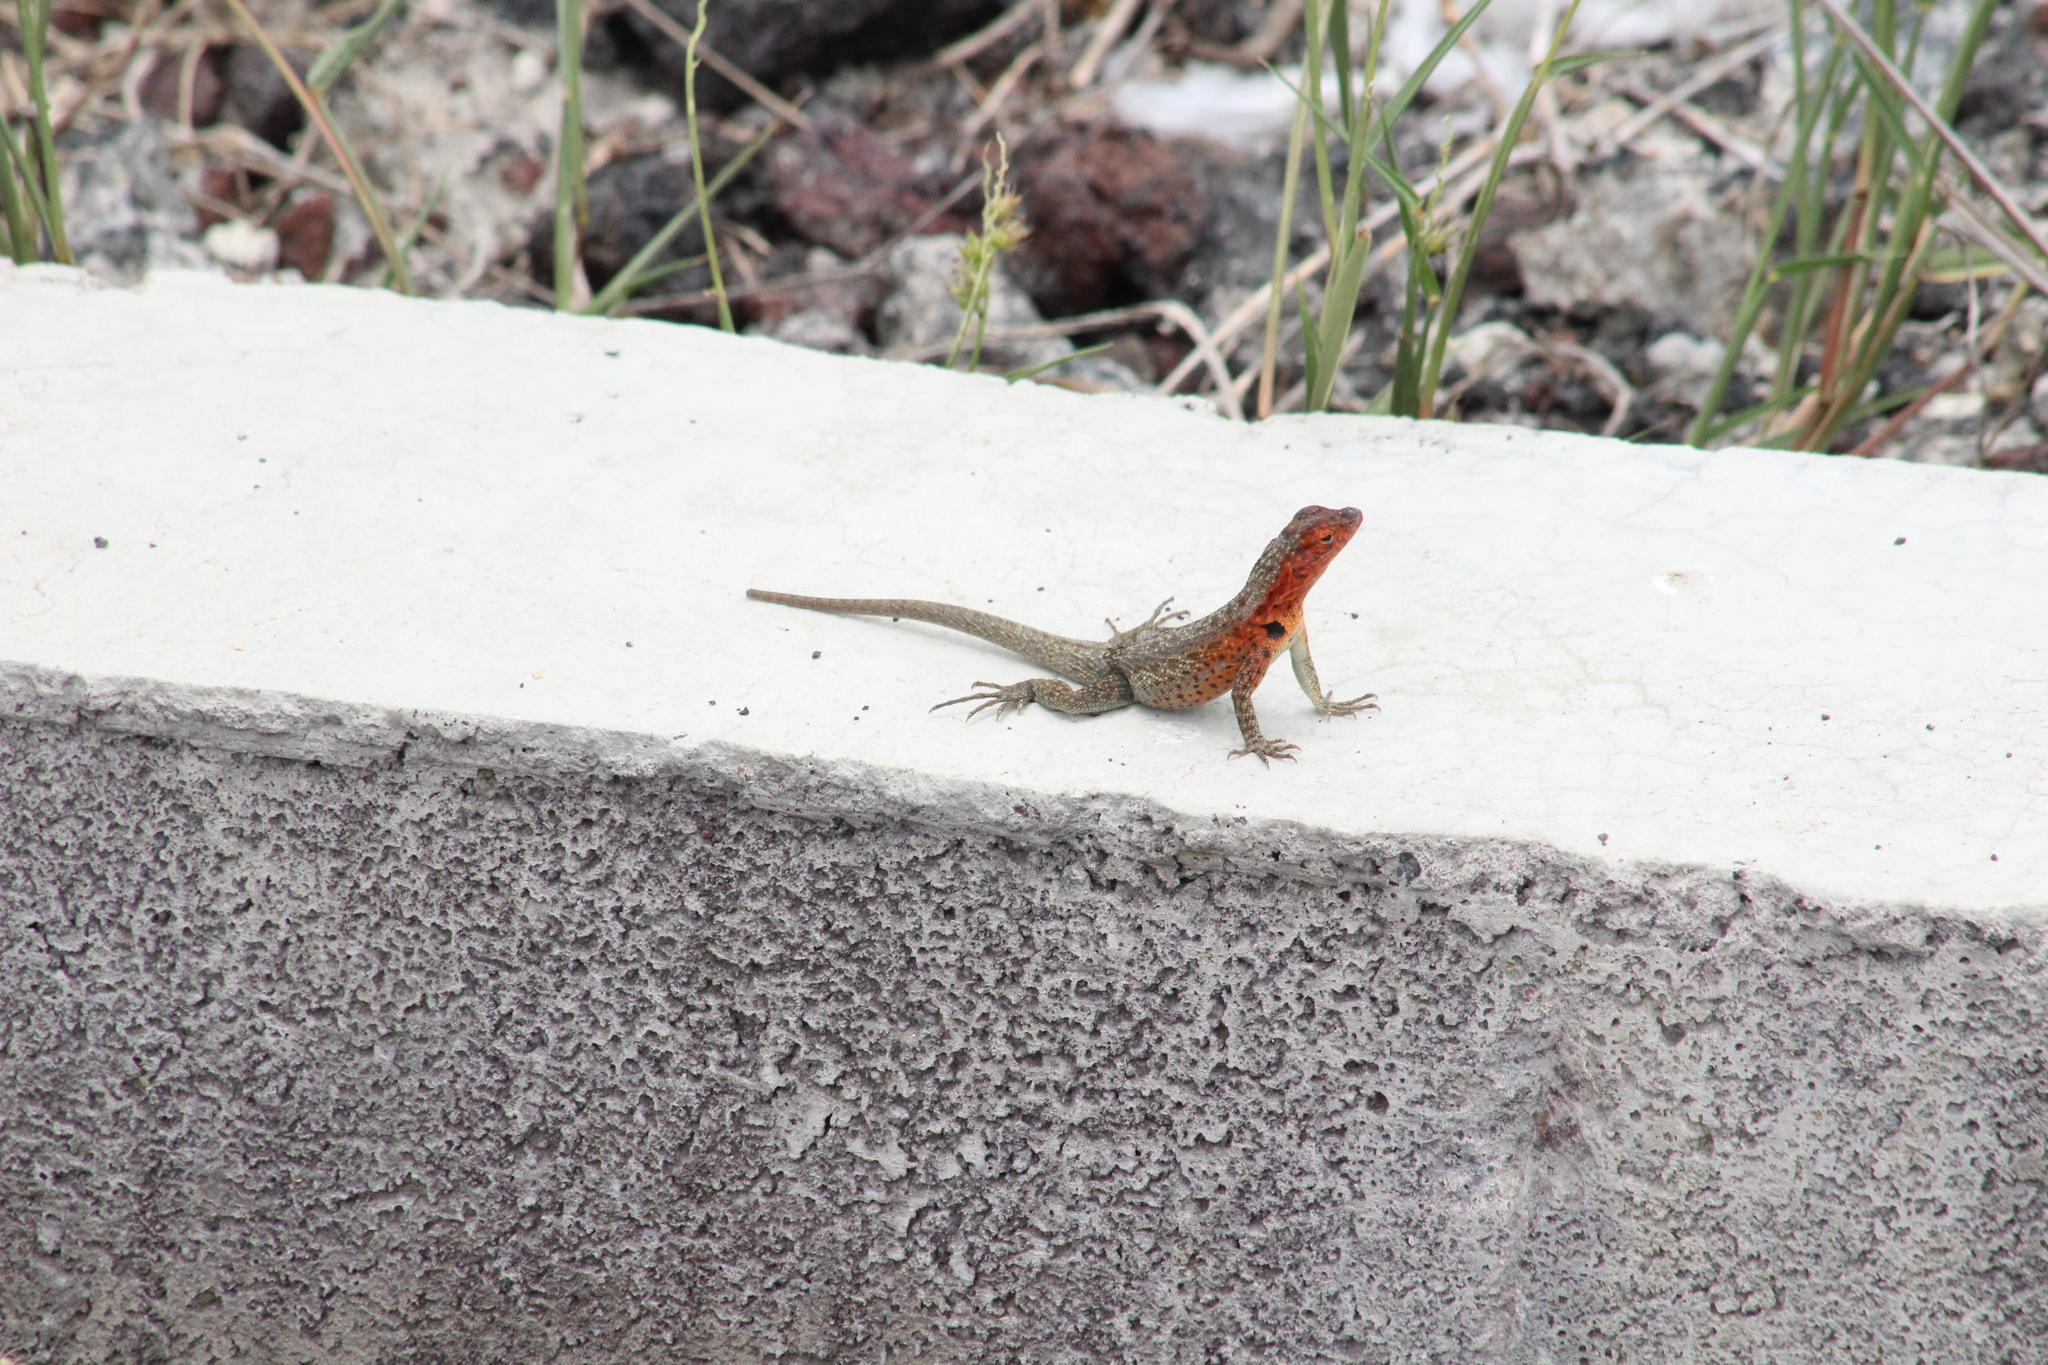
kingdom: Animalia
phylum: Chordata
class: Squamata
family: Tropiduridae
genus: Microlophus
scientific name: Microlophus albemarlensis
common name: Galapagos lava lizard
